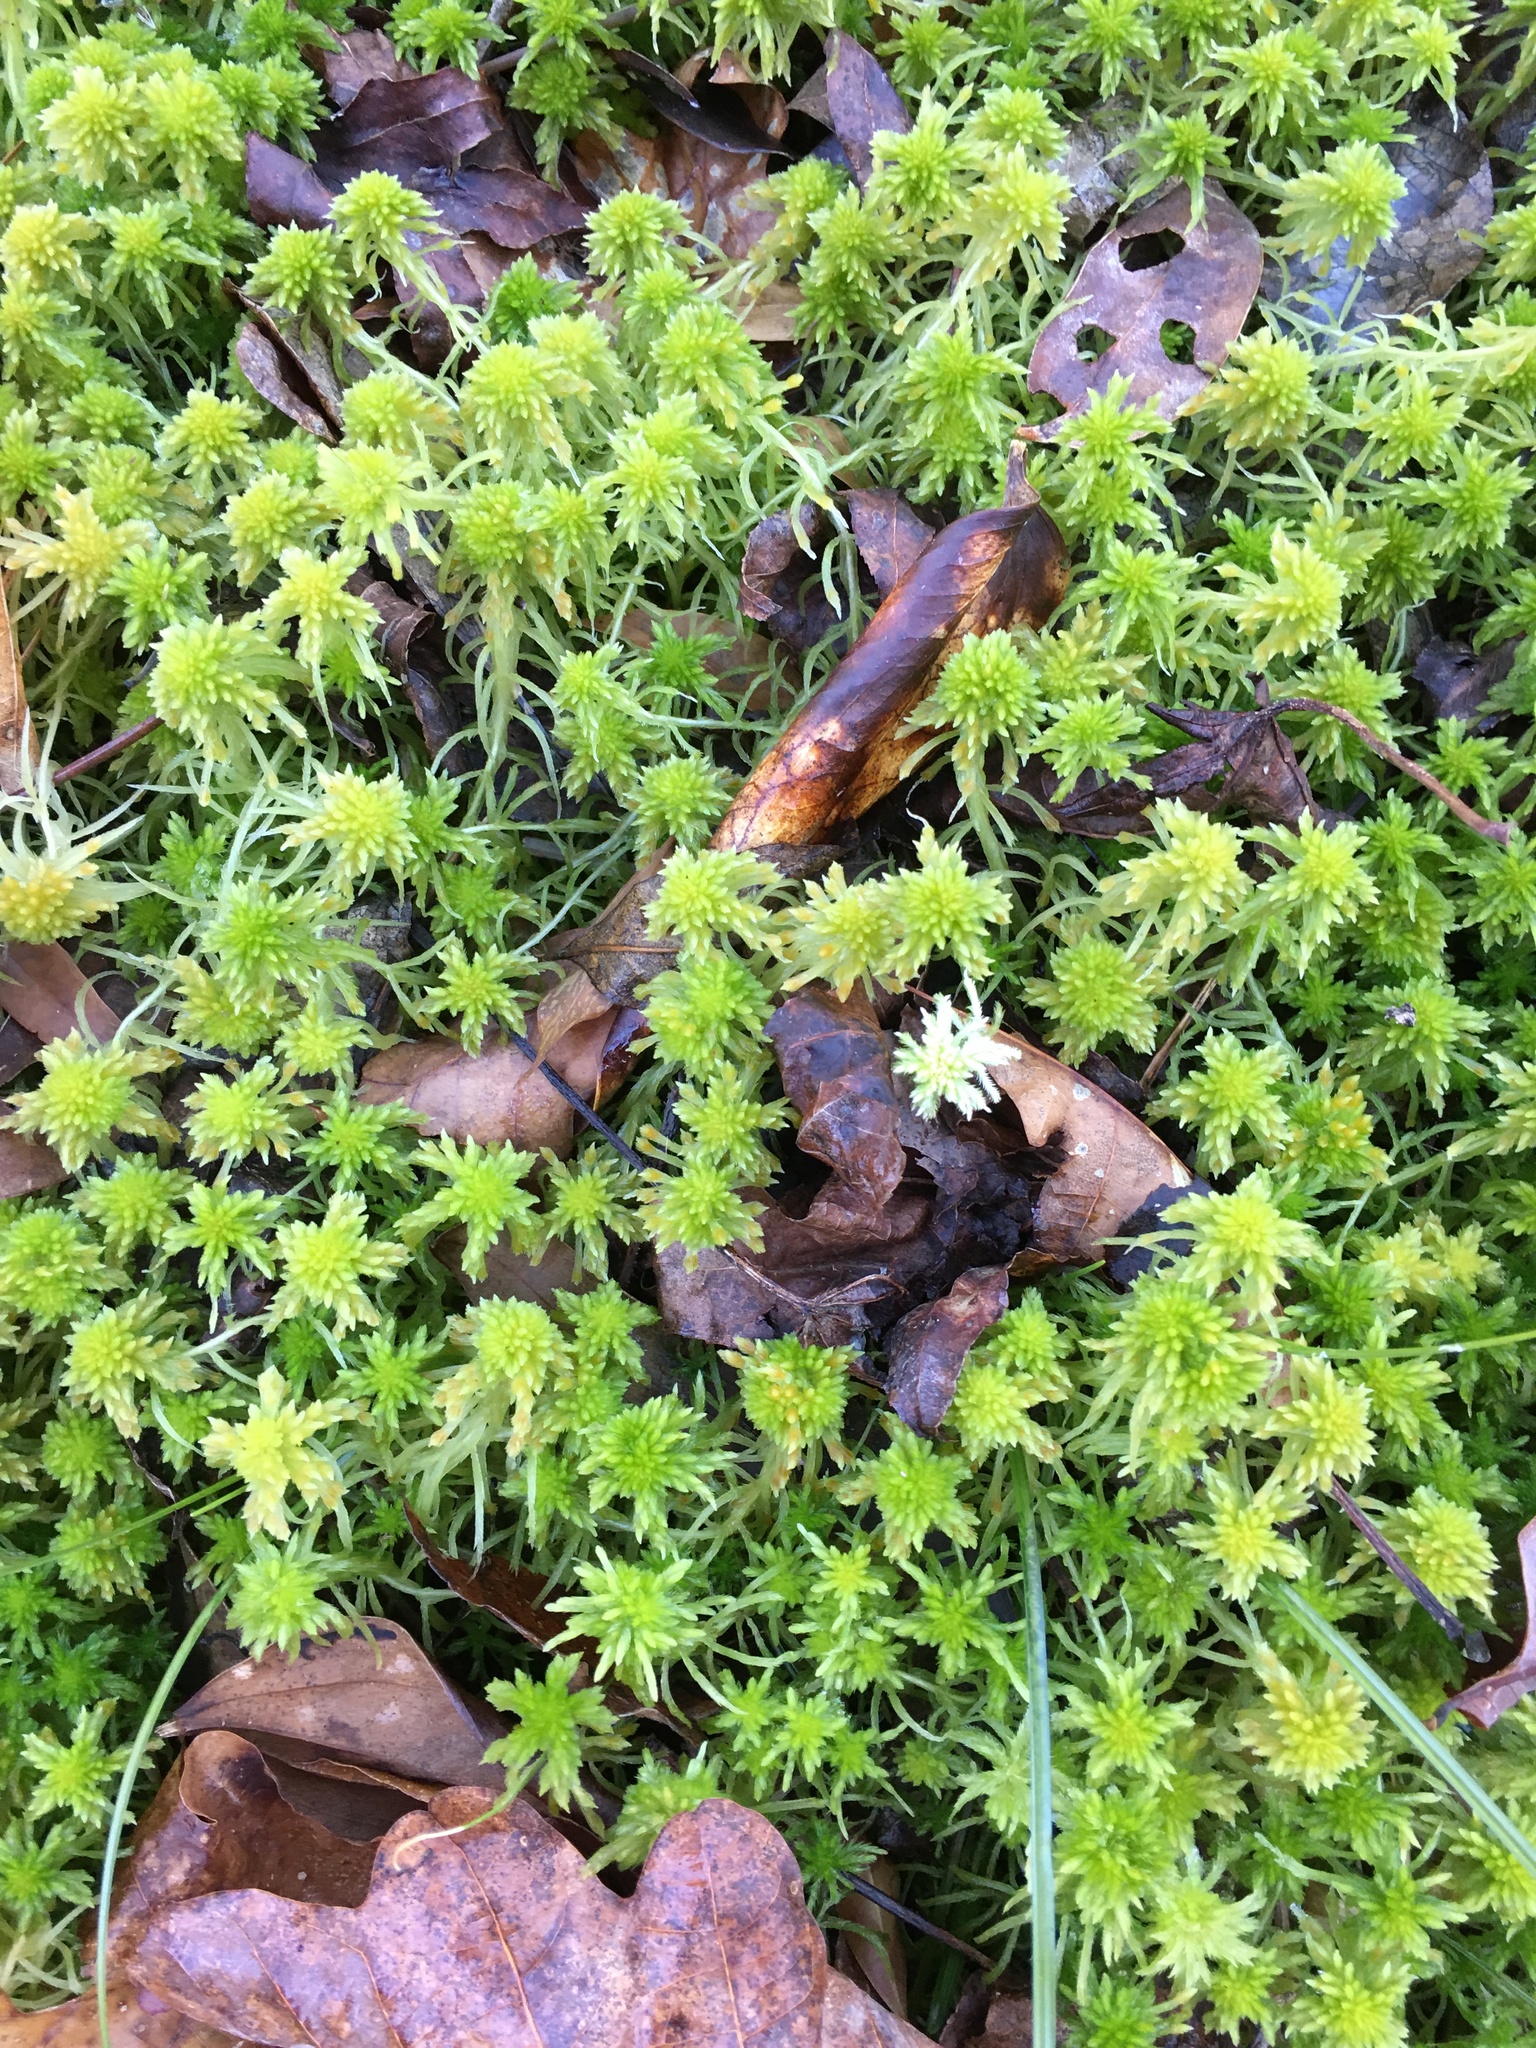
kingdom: Plantae
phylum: Bryophyta
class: Sphagnopsida
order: Sphagnales
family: Sphagnaceae
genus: Sphagnum
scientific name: Sphagnum recurvum
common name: Recurved peatmoss
